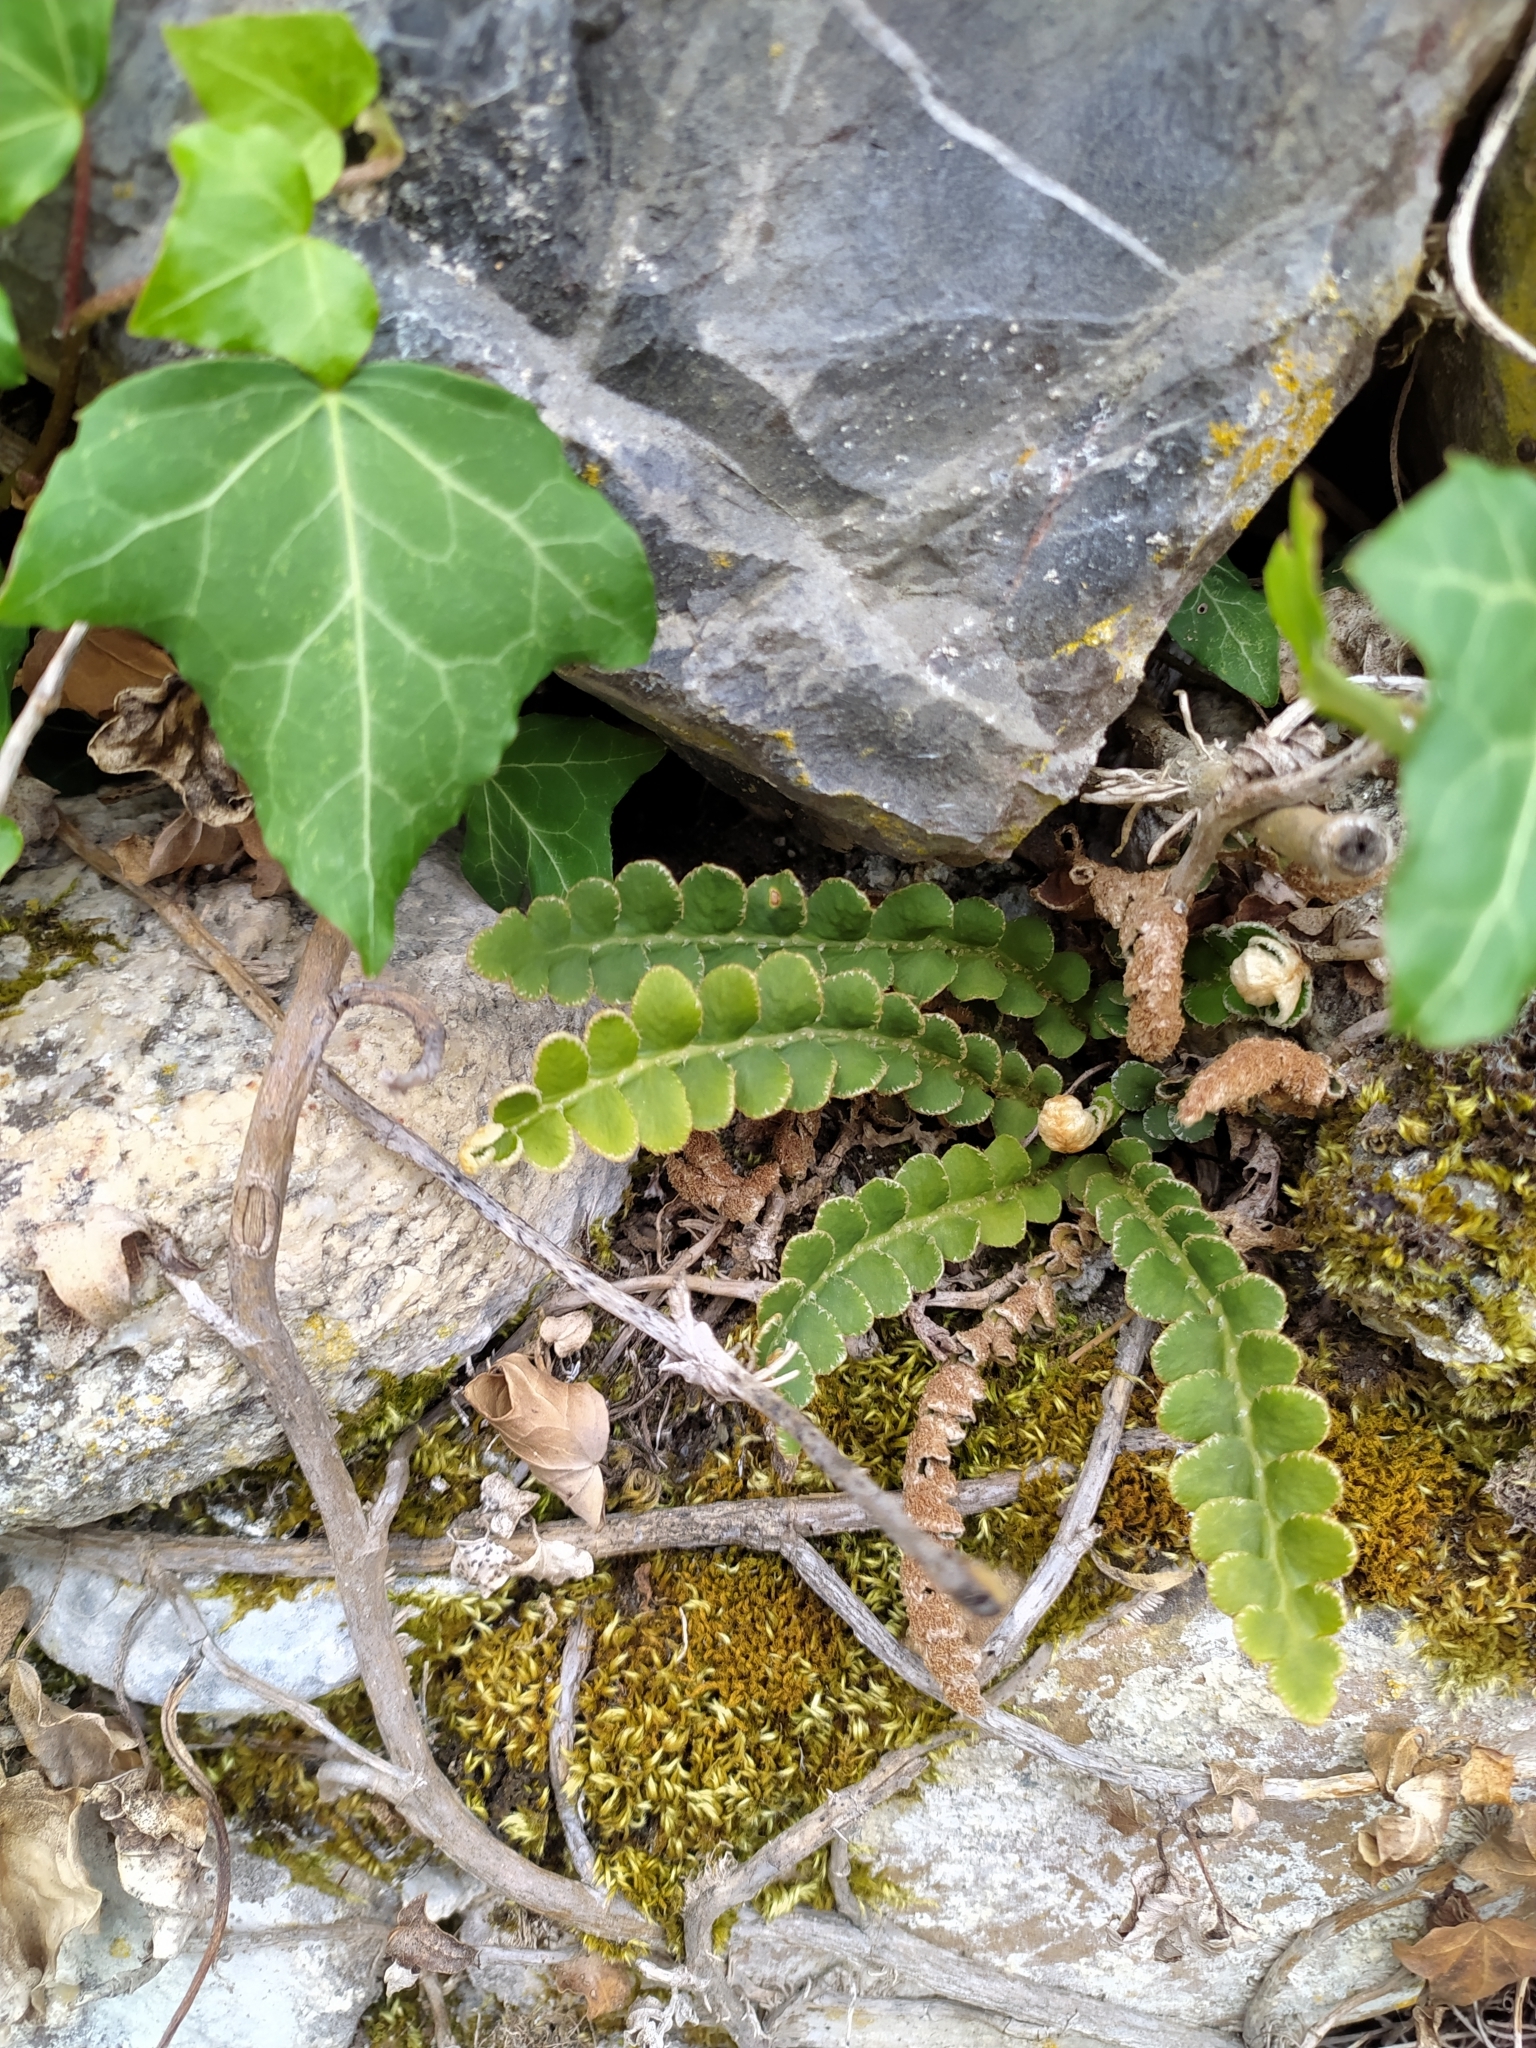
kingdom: Plantae
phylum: Tracheophyta
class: Polypodiopsida
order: Polypodiales
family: Aspleniaceae
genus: Asplenium
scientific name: Asplenium ceterach
